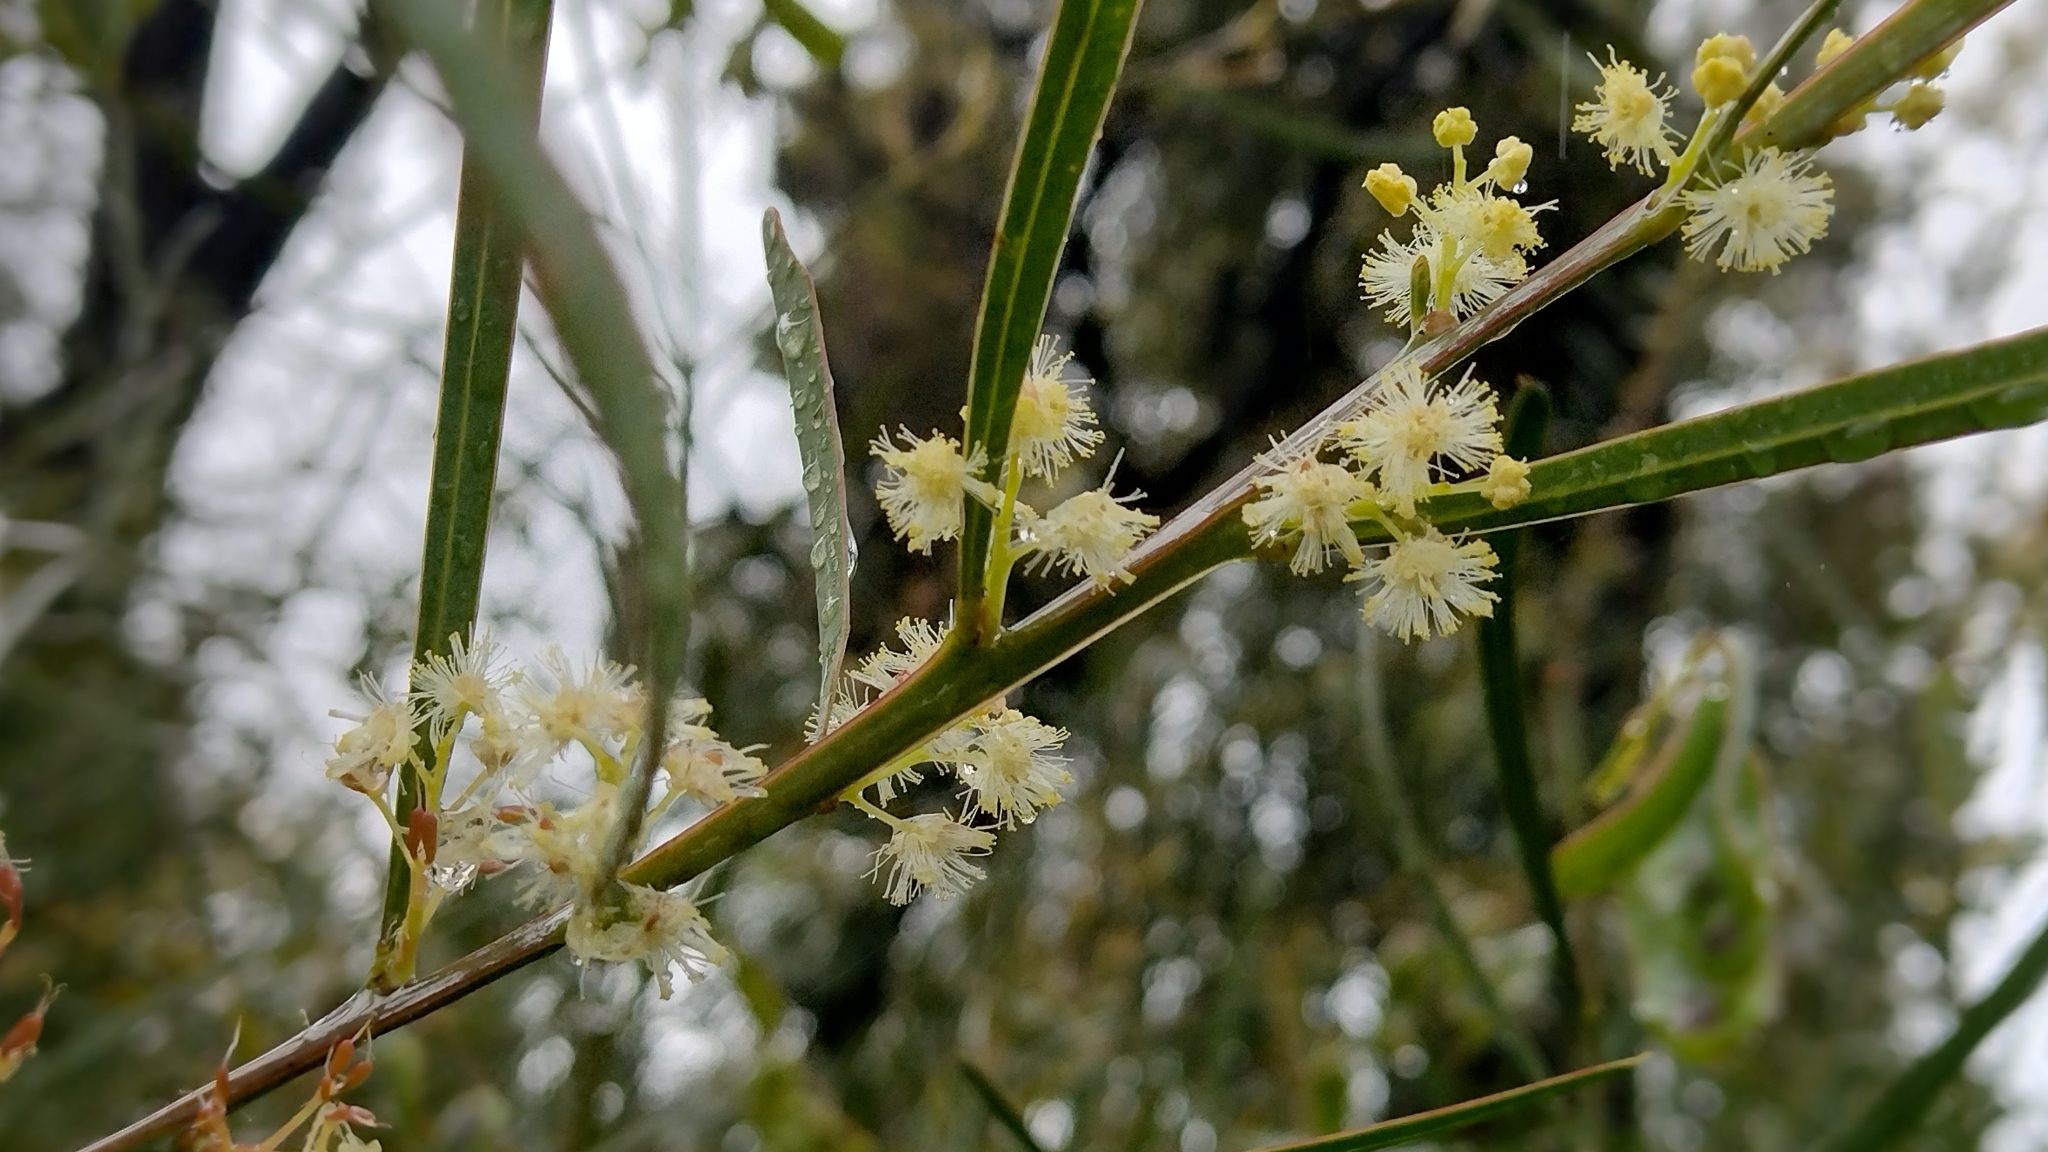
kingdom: Plantae
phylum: Tracheophyta
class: Magnoliopsida
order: Fabales
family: Fabaceae
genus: Acacia
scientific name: Acacia suaveolens
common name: Sweet acacia
